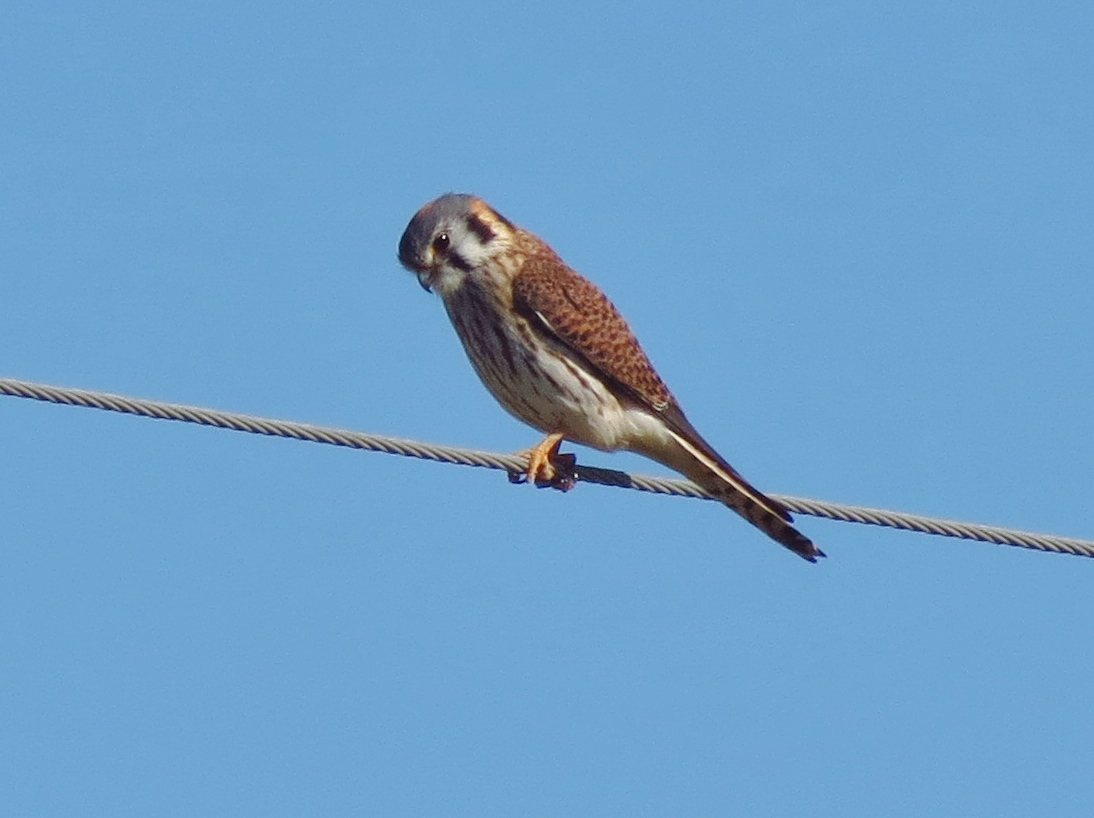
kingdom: Animalia
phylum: Chordata
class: Aves
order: Falconiformes
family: Falconidae
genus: Falco
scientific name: Falco sparverius
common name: American kestrel
